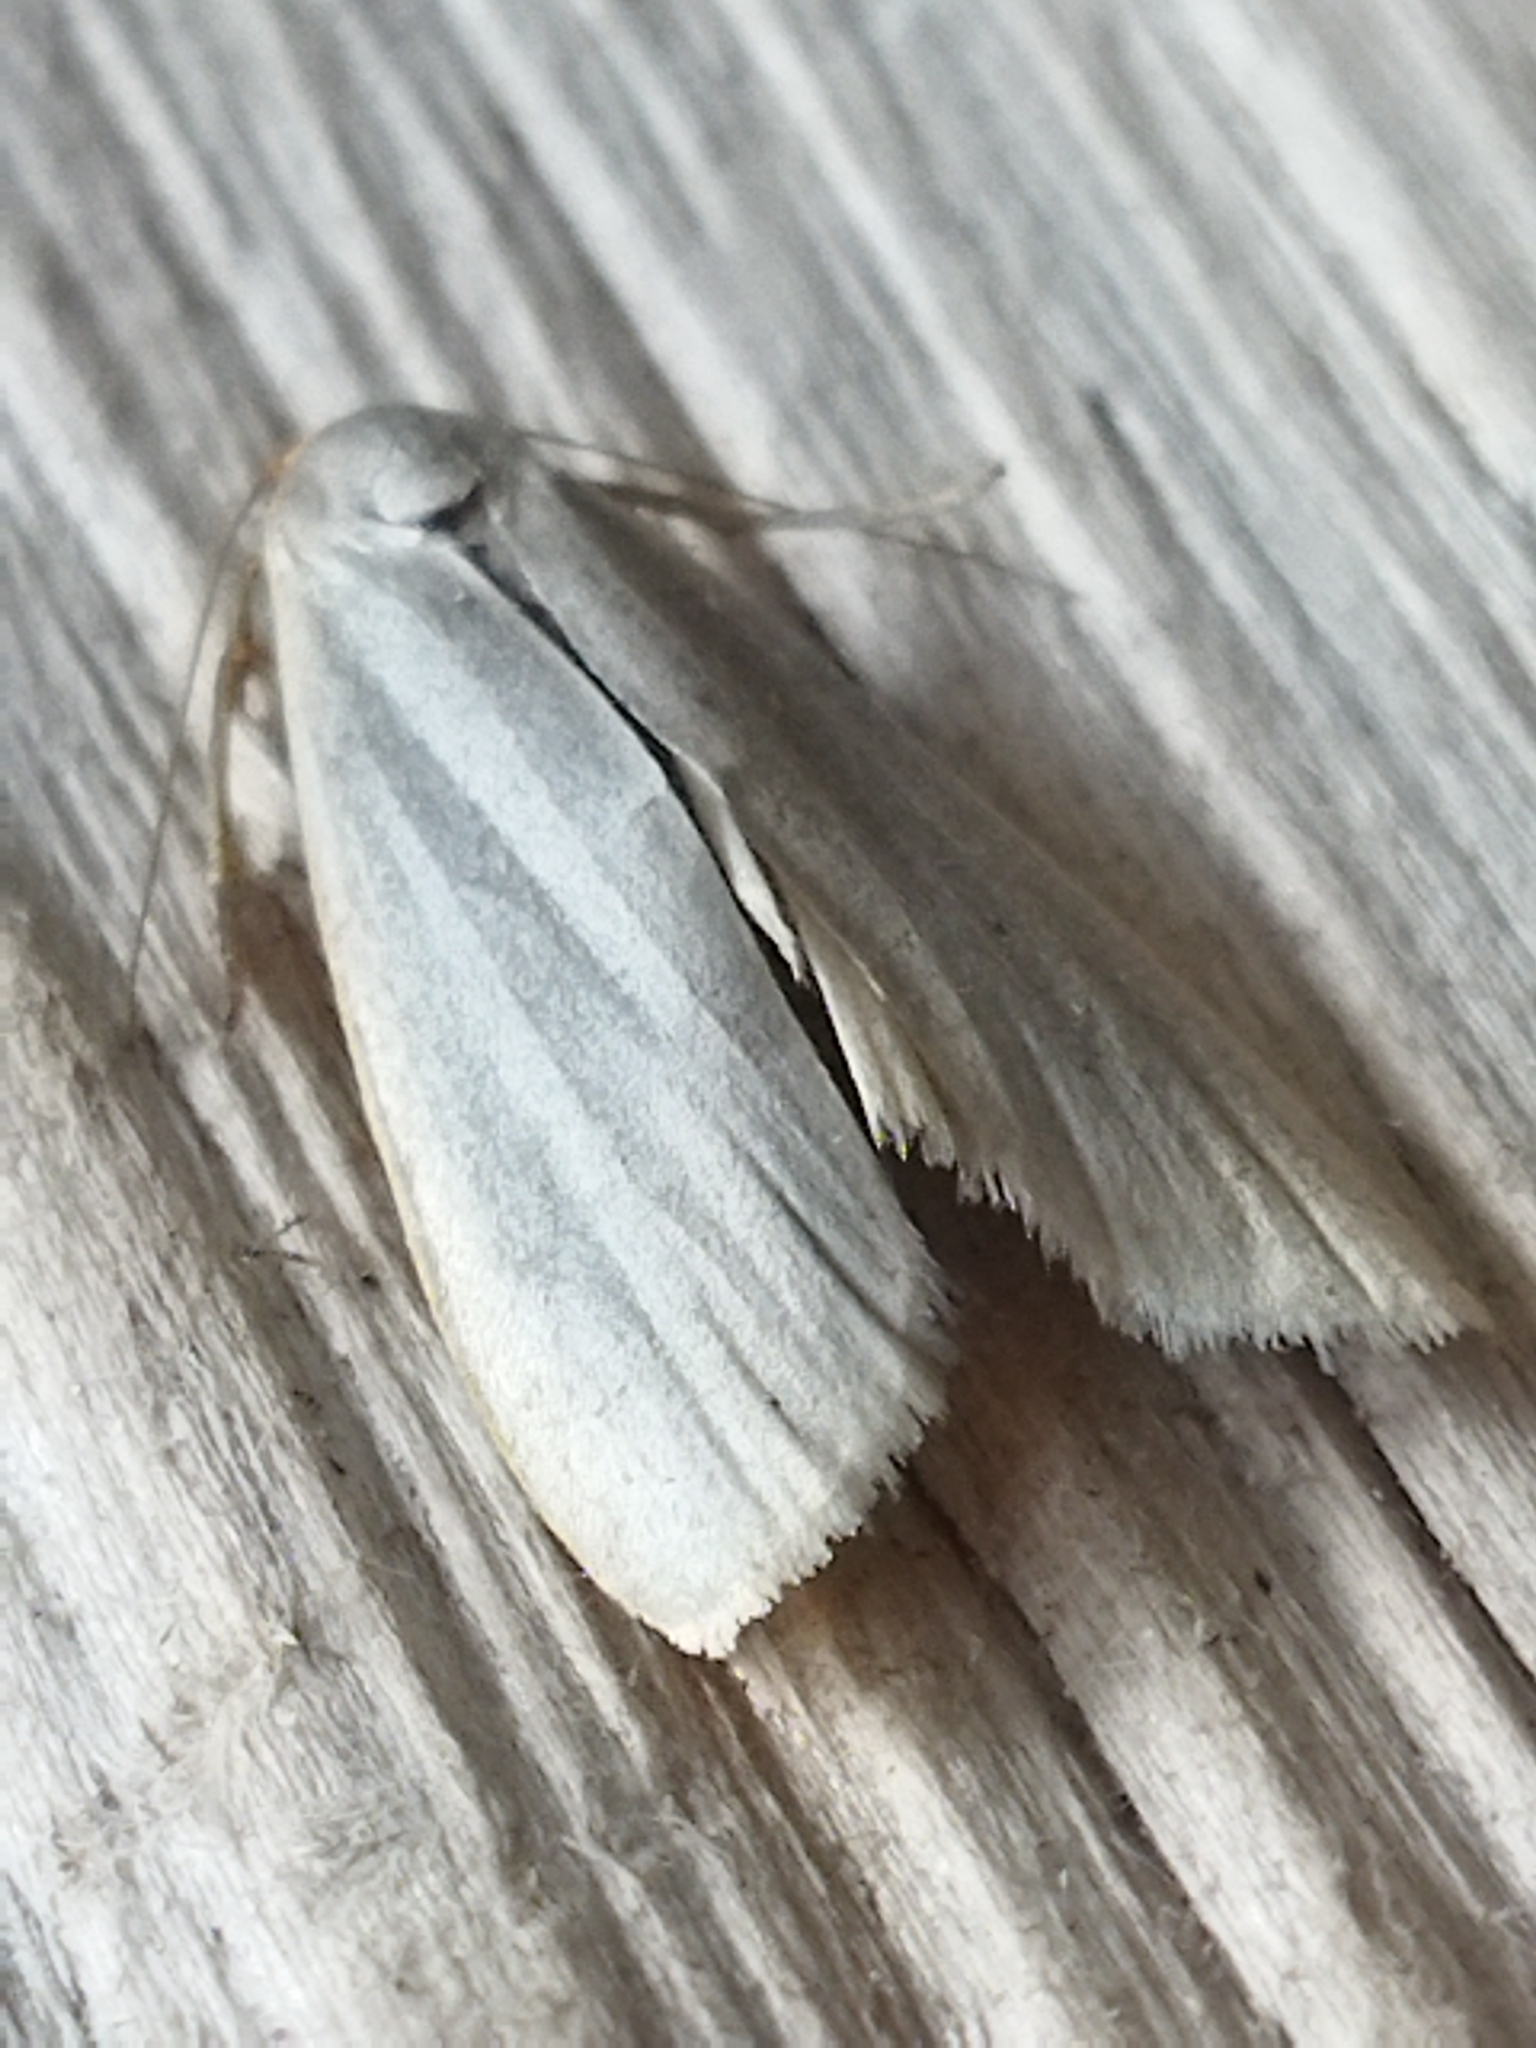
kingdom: Animalia
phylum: Arthropoda
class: Insecta
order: Lepidoptera
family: Erebidae
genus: Eilema
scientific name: Eilema caniola
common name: Hoary footman
